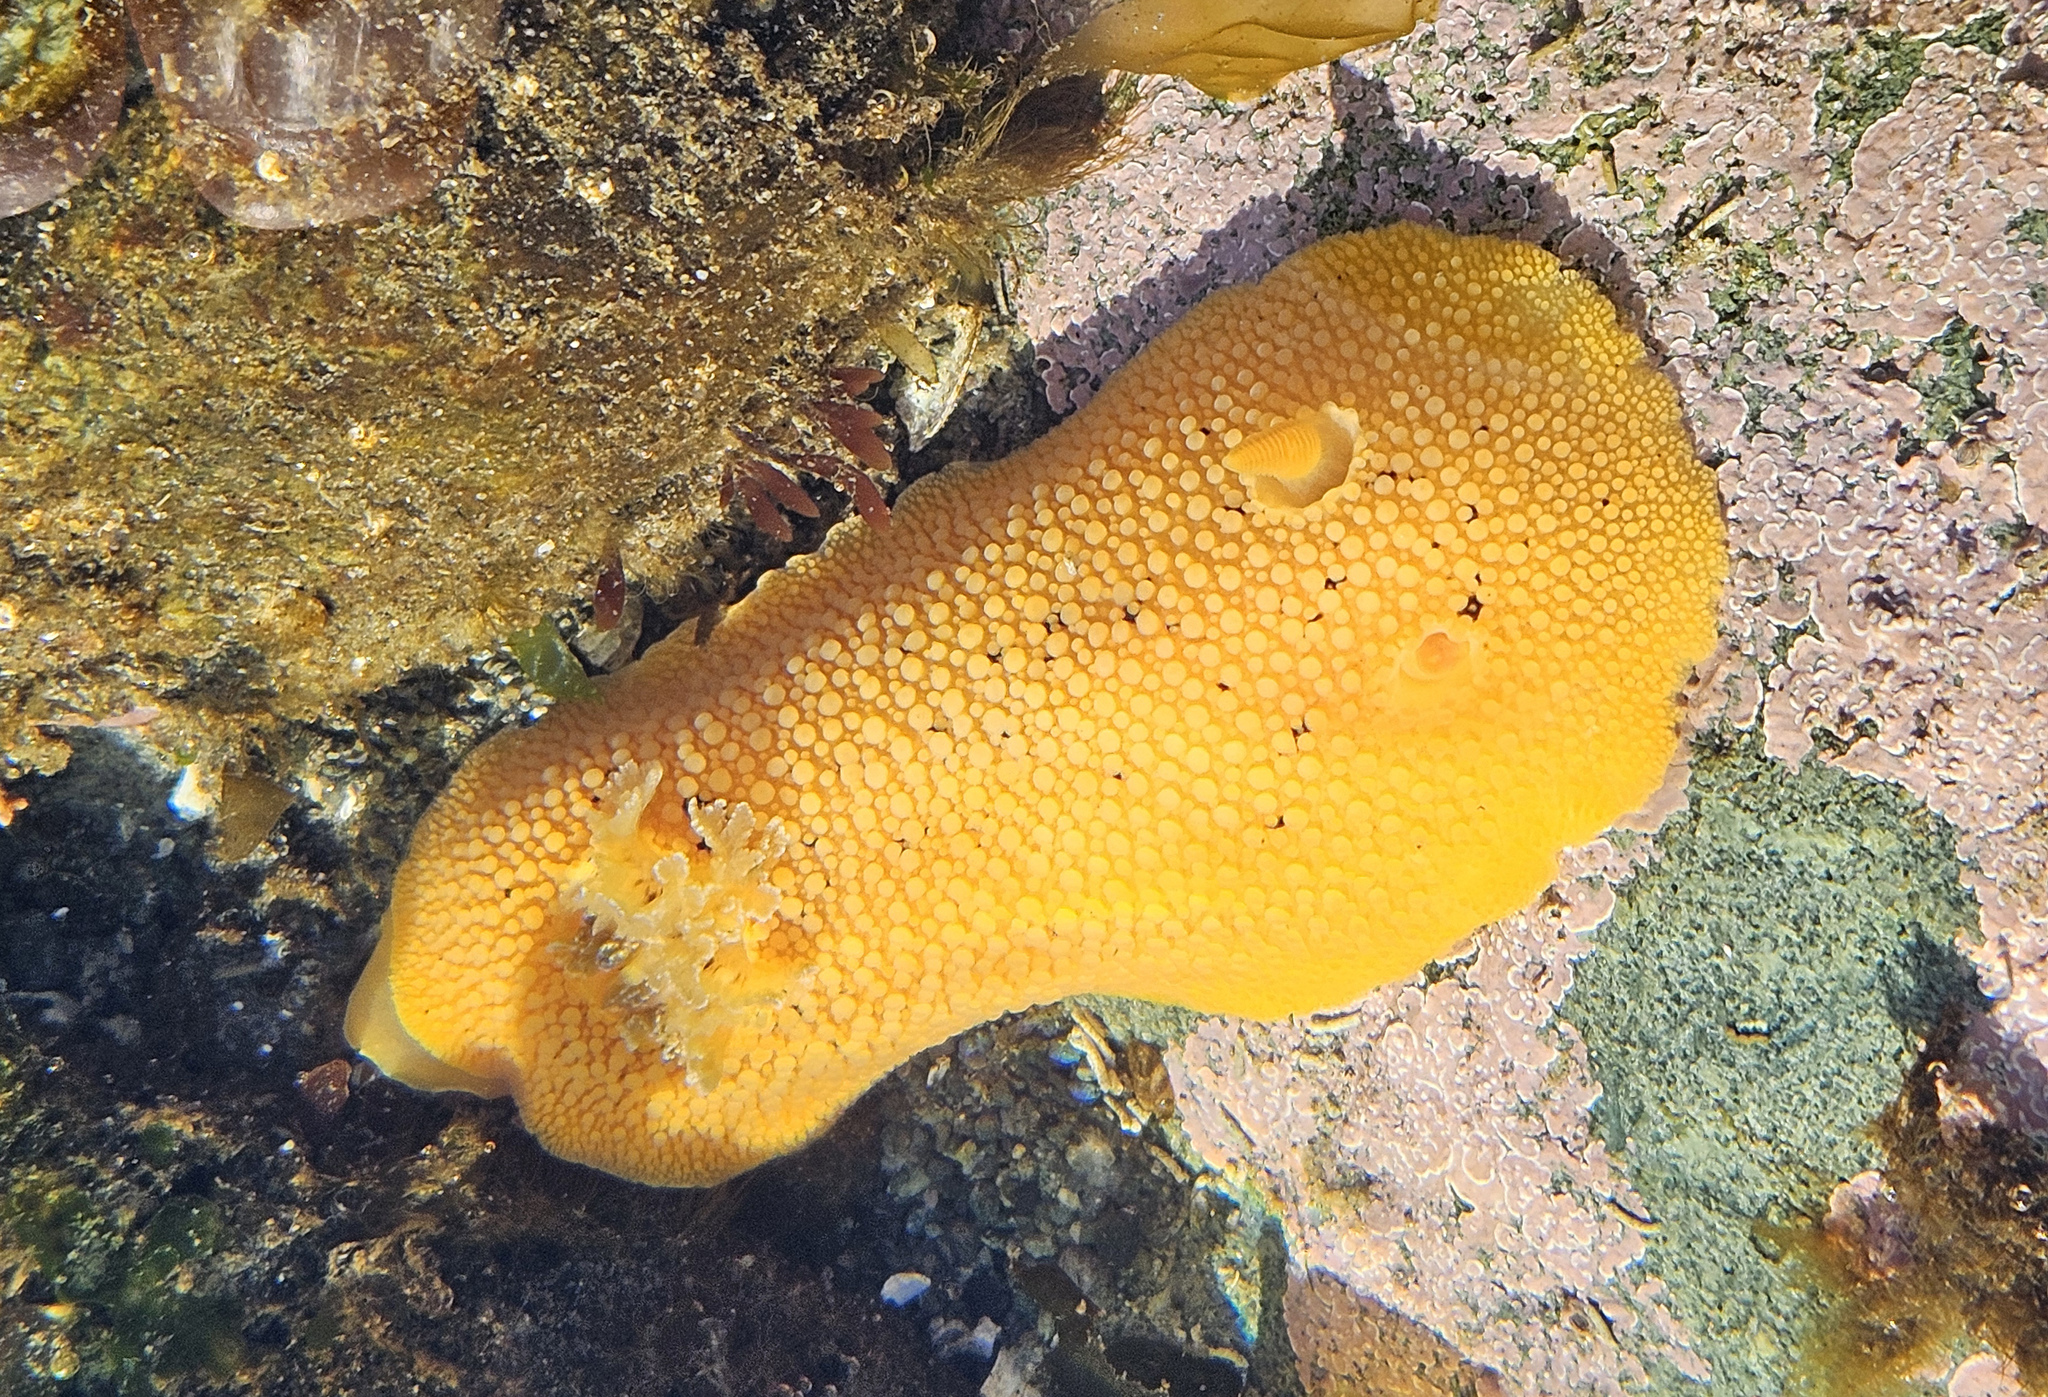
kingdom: Animalia
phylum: Mollusca
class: Gastropoda
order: Nudibranchia
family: Discodorididae
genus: Peltodoris
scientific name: Peltodoris nobilis
